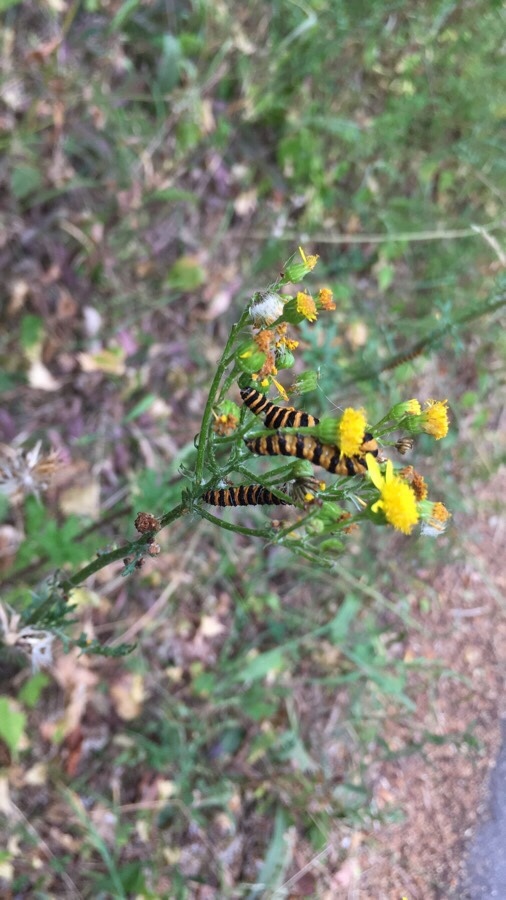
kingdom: Animalia
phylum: Arthropoda
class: Insecta
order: Lepidoptera
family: Erebidae
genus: Tyria
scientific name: Tyria jacobaeae
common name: Cinnabar
